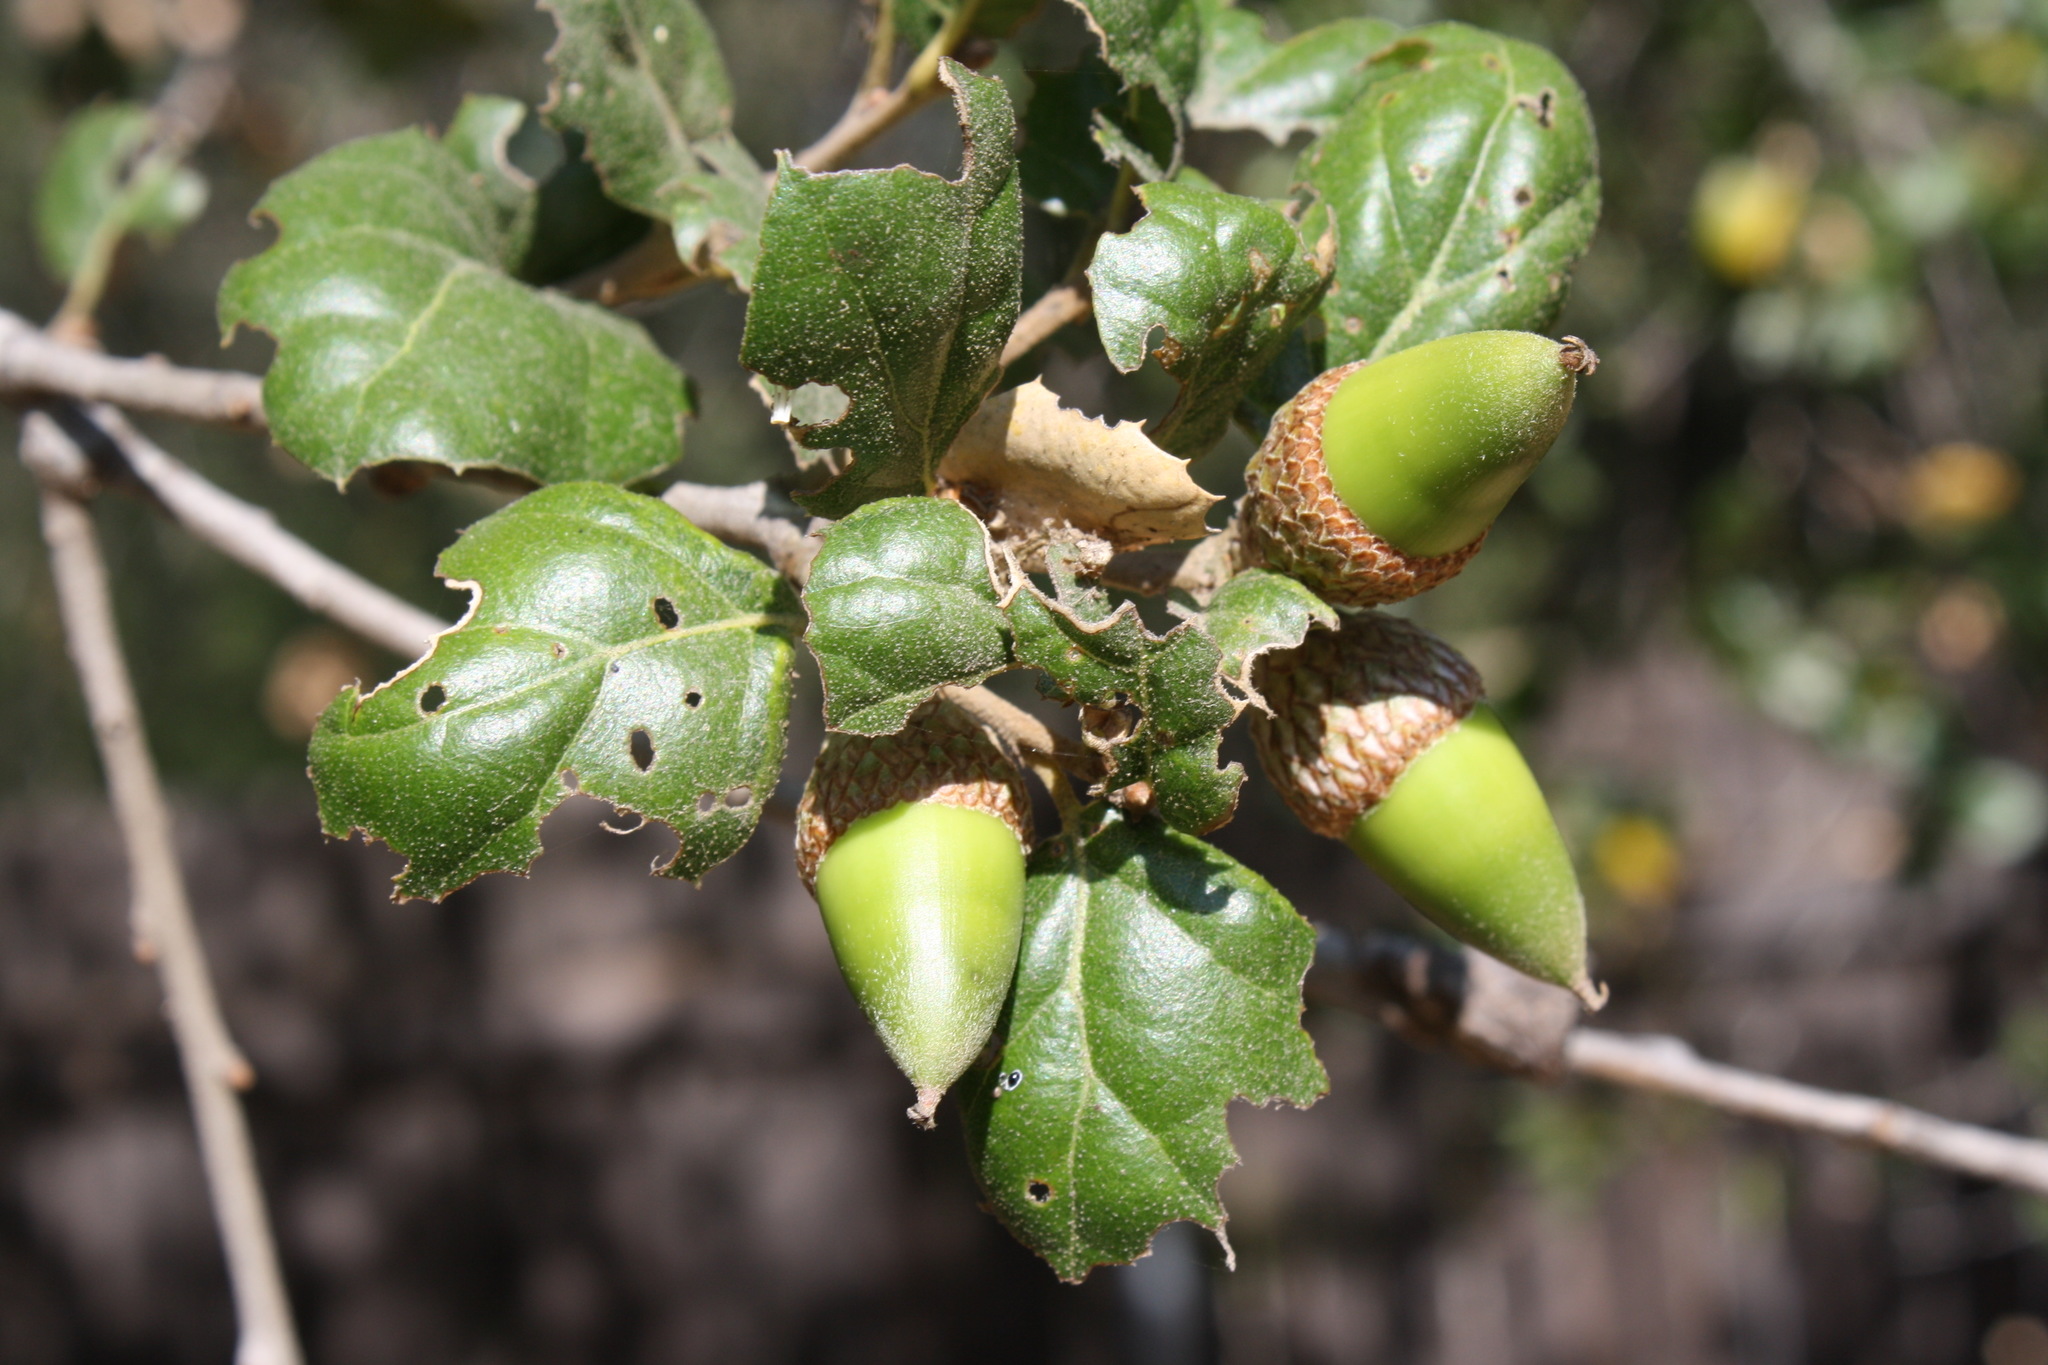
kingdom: Plantae
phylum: Tracheophyta
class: Magnoliopsida
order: Fagales
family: Fagaceae
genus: Quercus
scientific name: Quercus agrifolia
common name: California live oak
